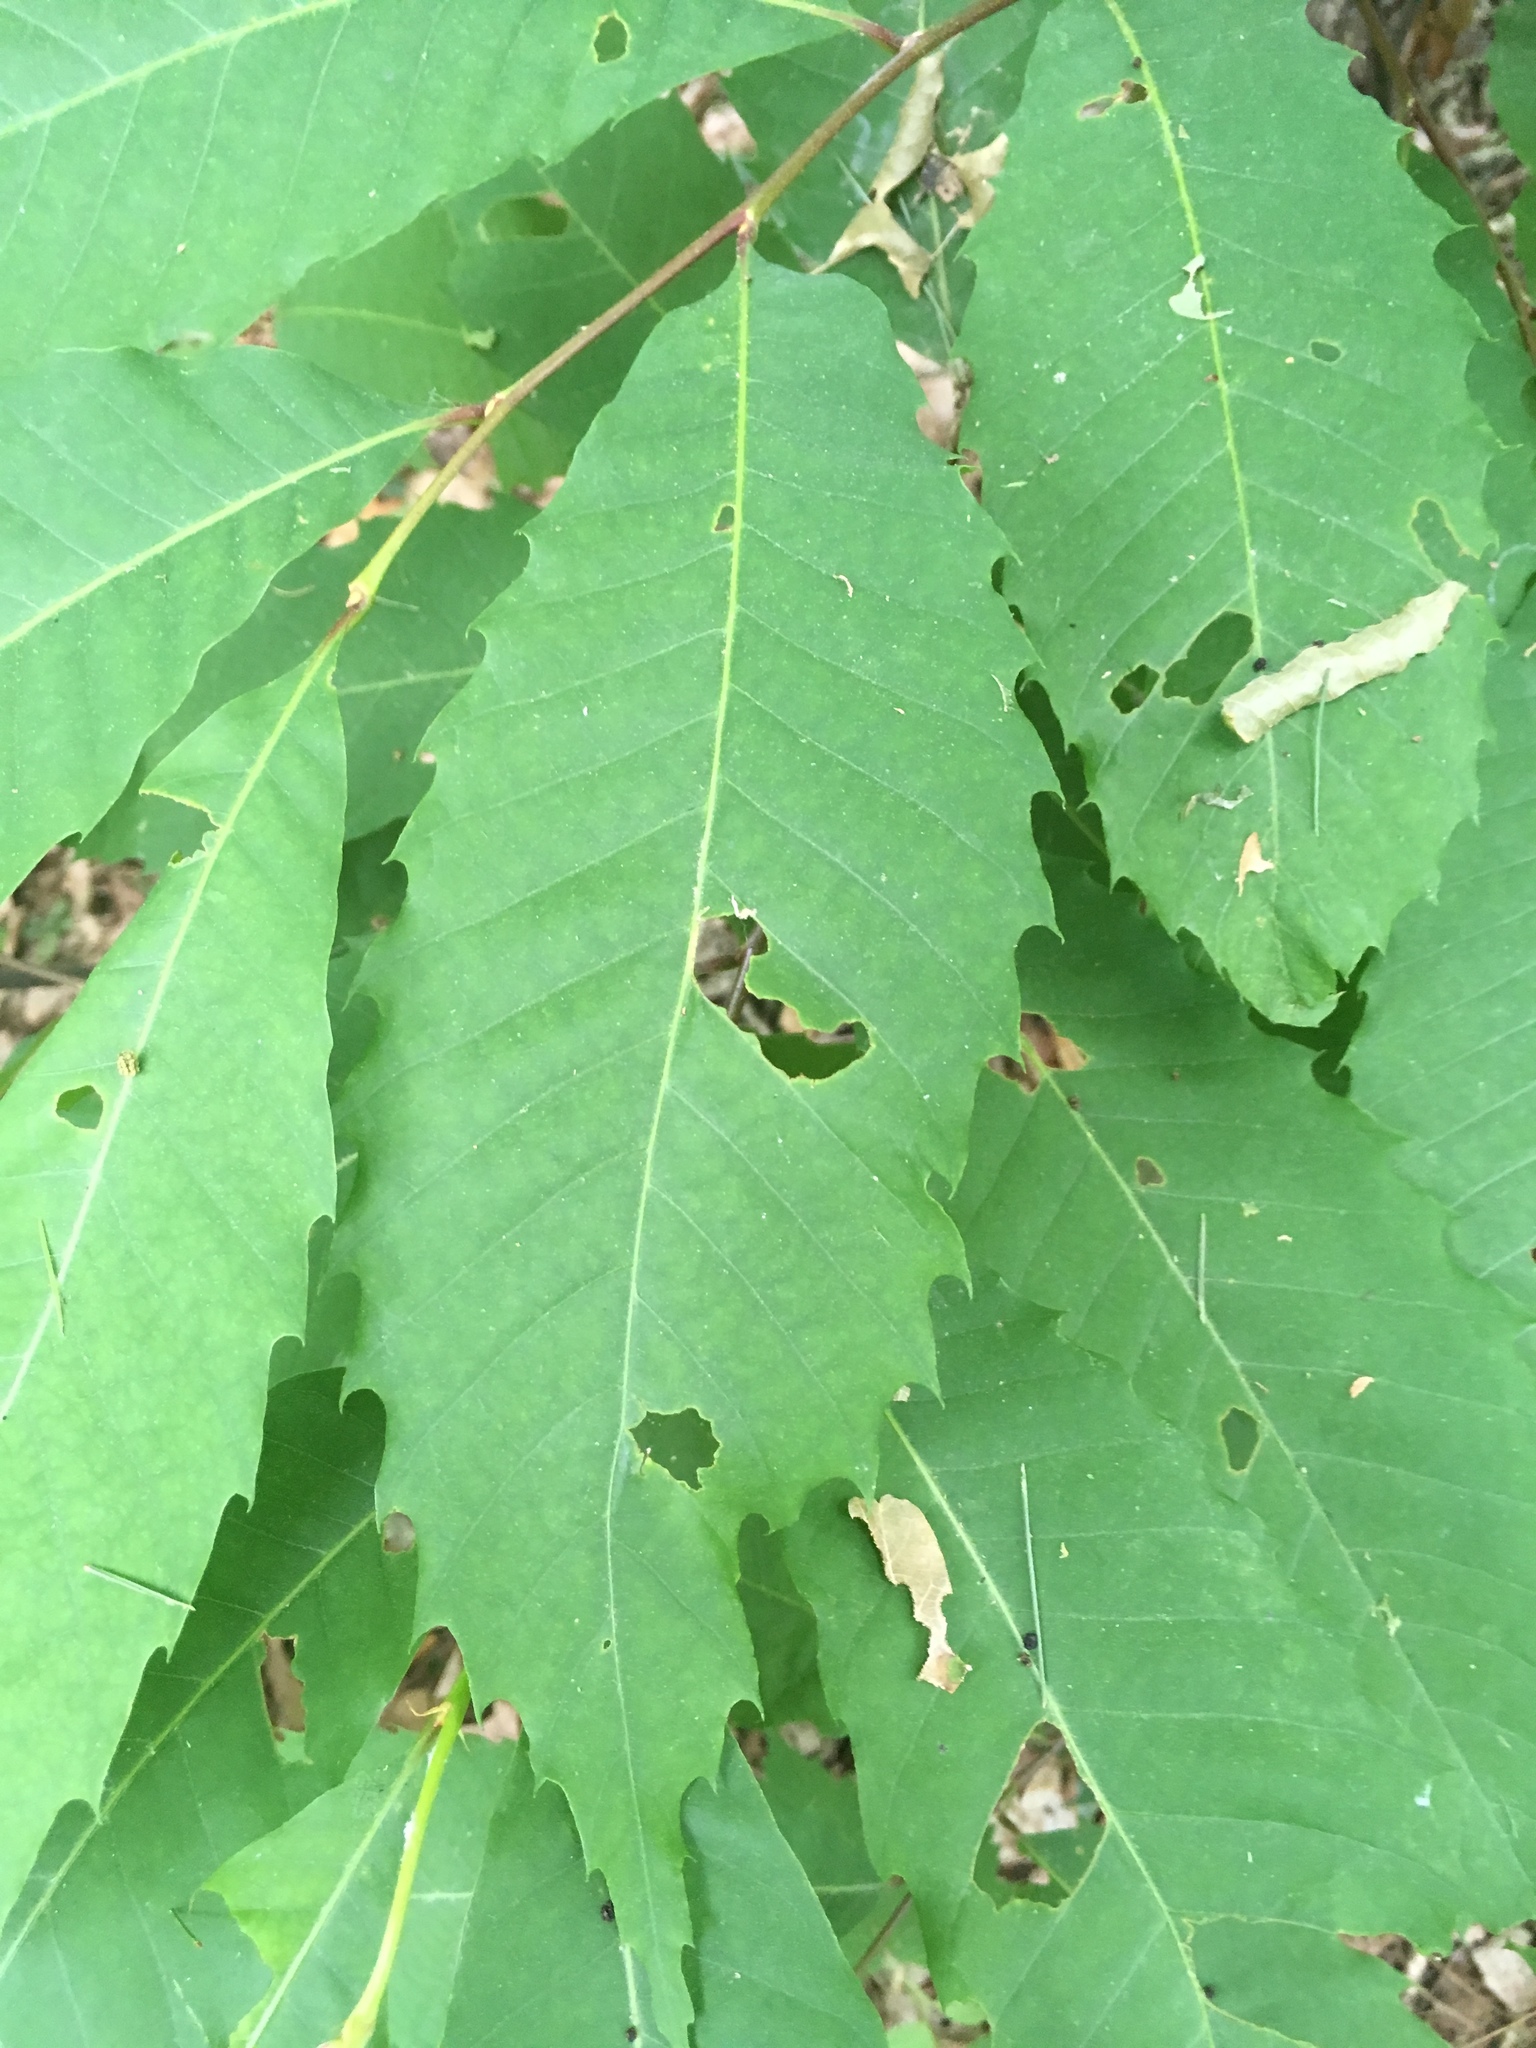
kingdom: Plantae
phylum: Tracheophyta
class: Magnoliopsida
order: Fagales
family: Fagaceae
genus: Castanea
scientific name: Castanea dentata
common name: American chestnut
